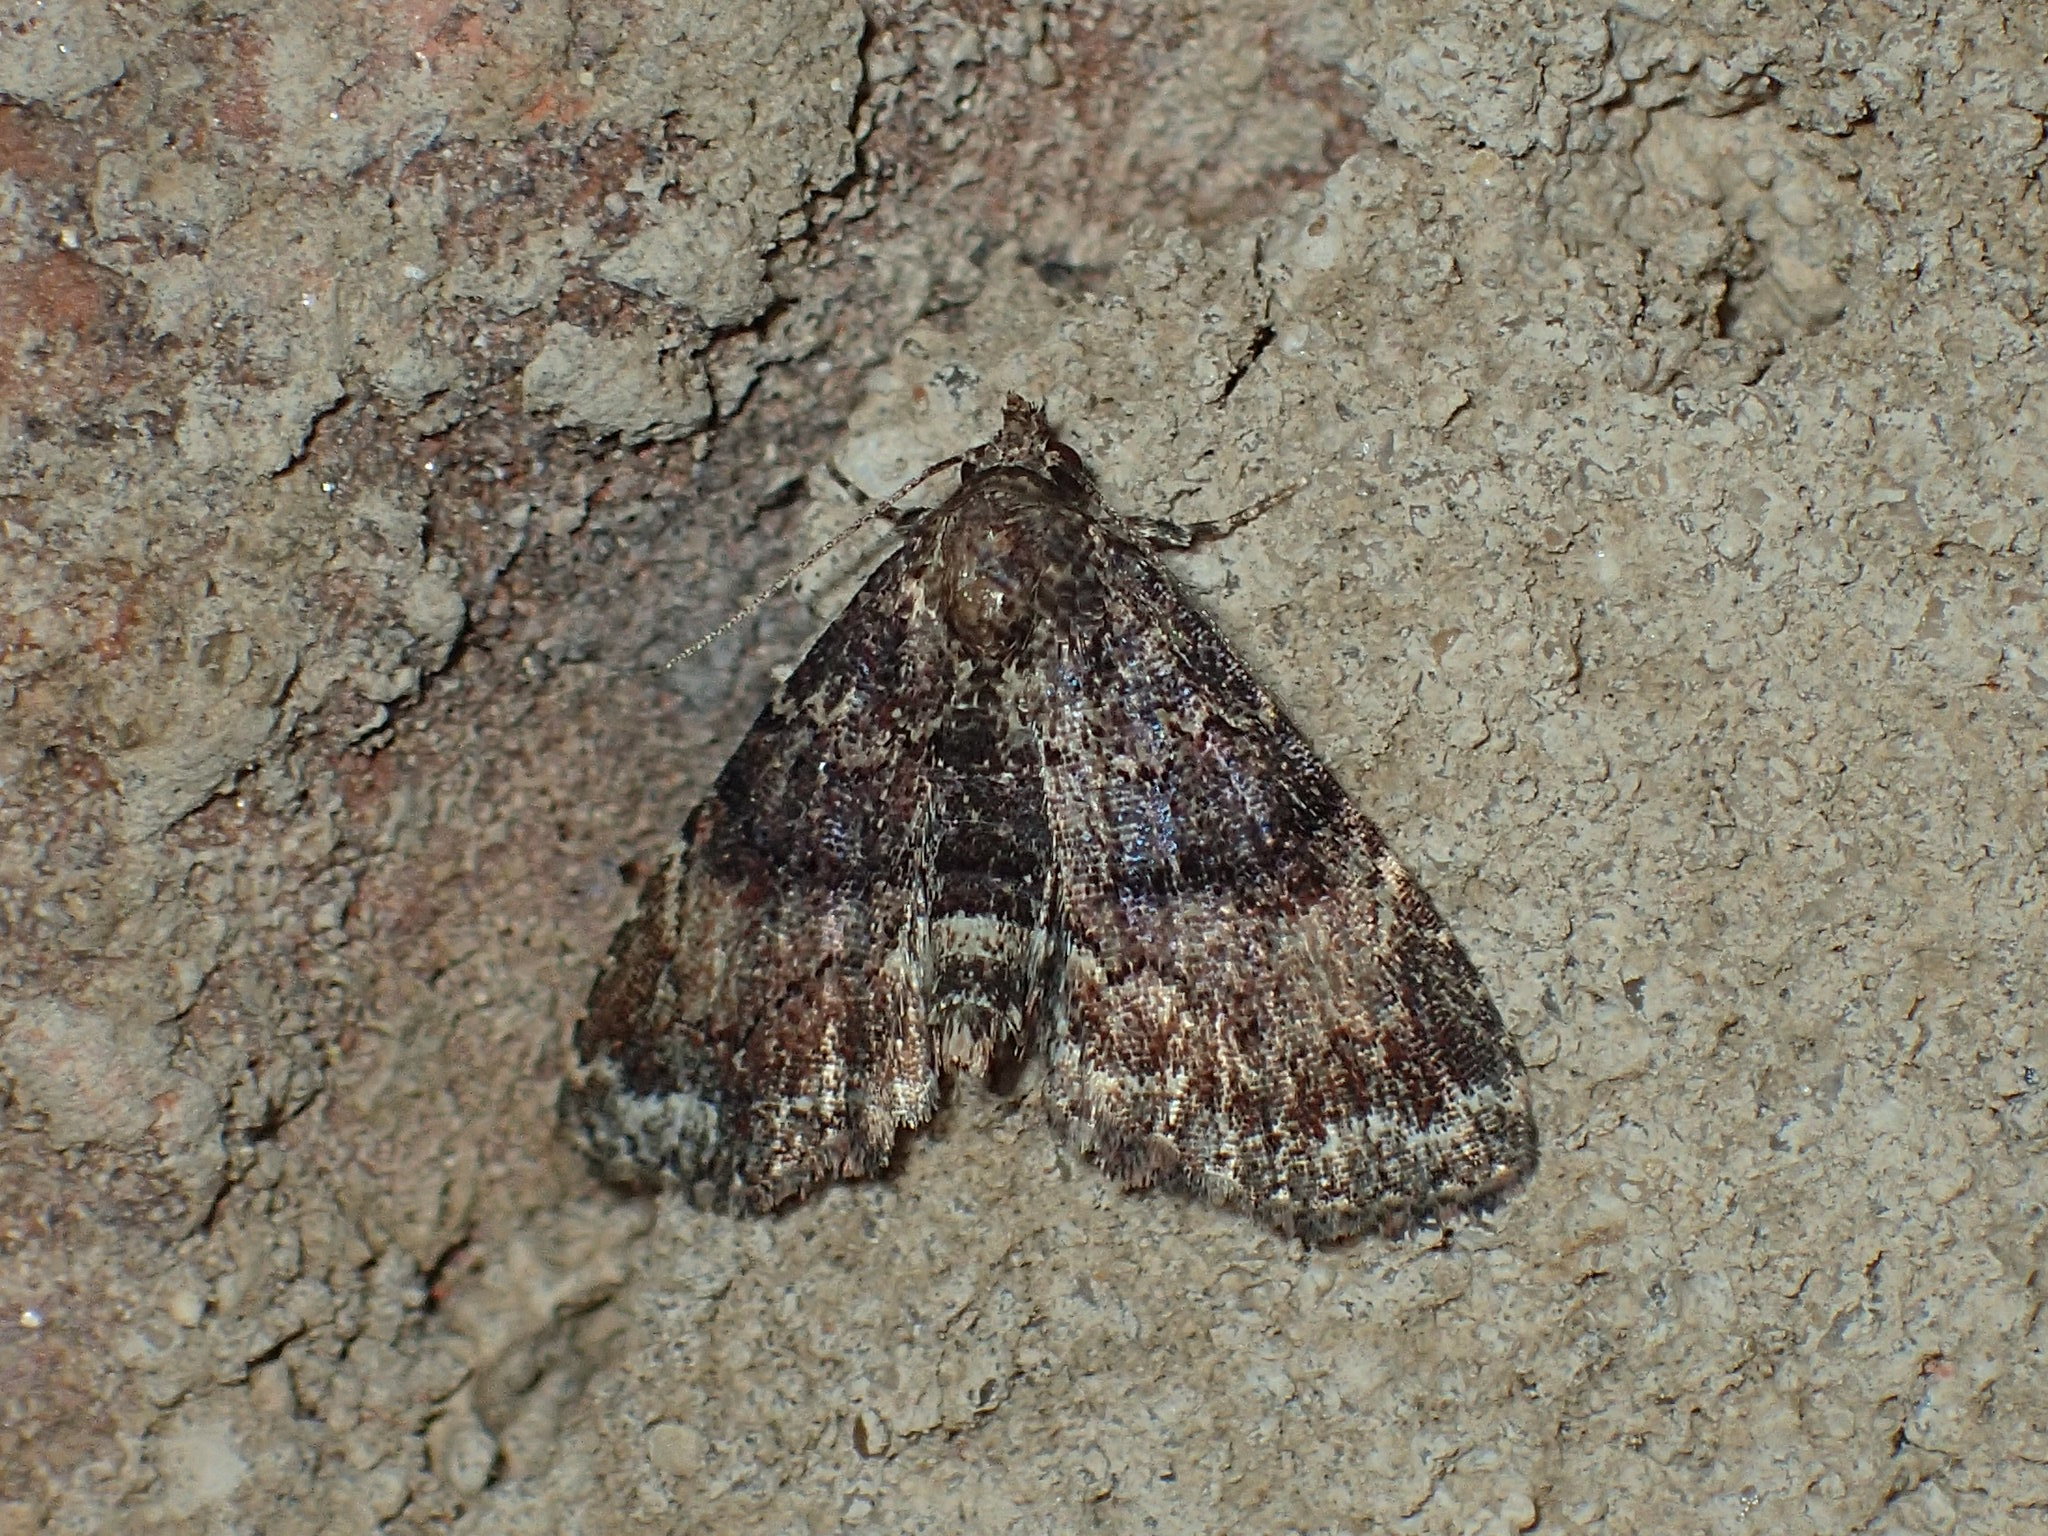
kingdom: Animalia
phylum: Arthropoda
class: Insecta
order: Lepidoptera
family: Erebidae
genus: Metalectra
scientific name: Metalectra richardsi
